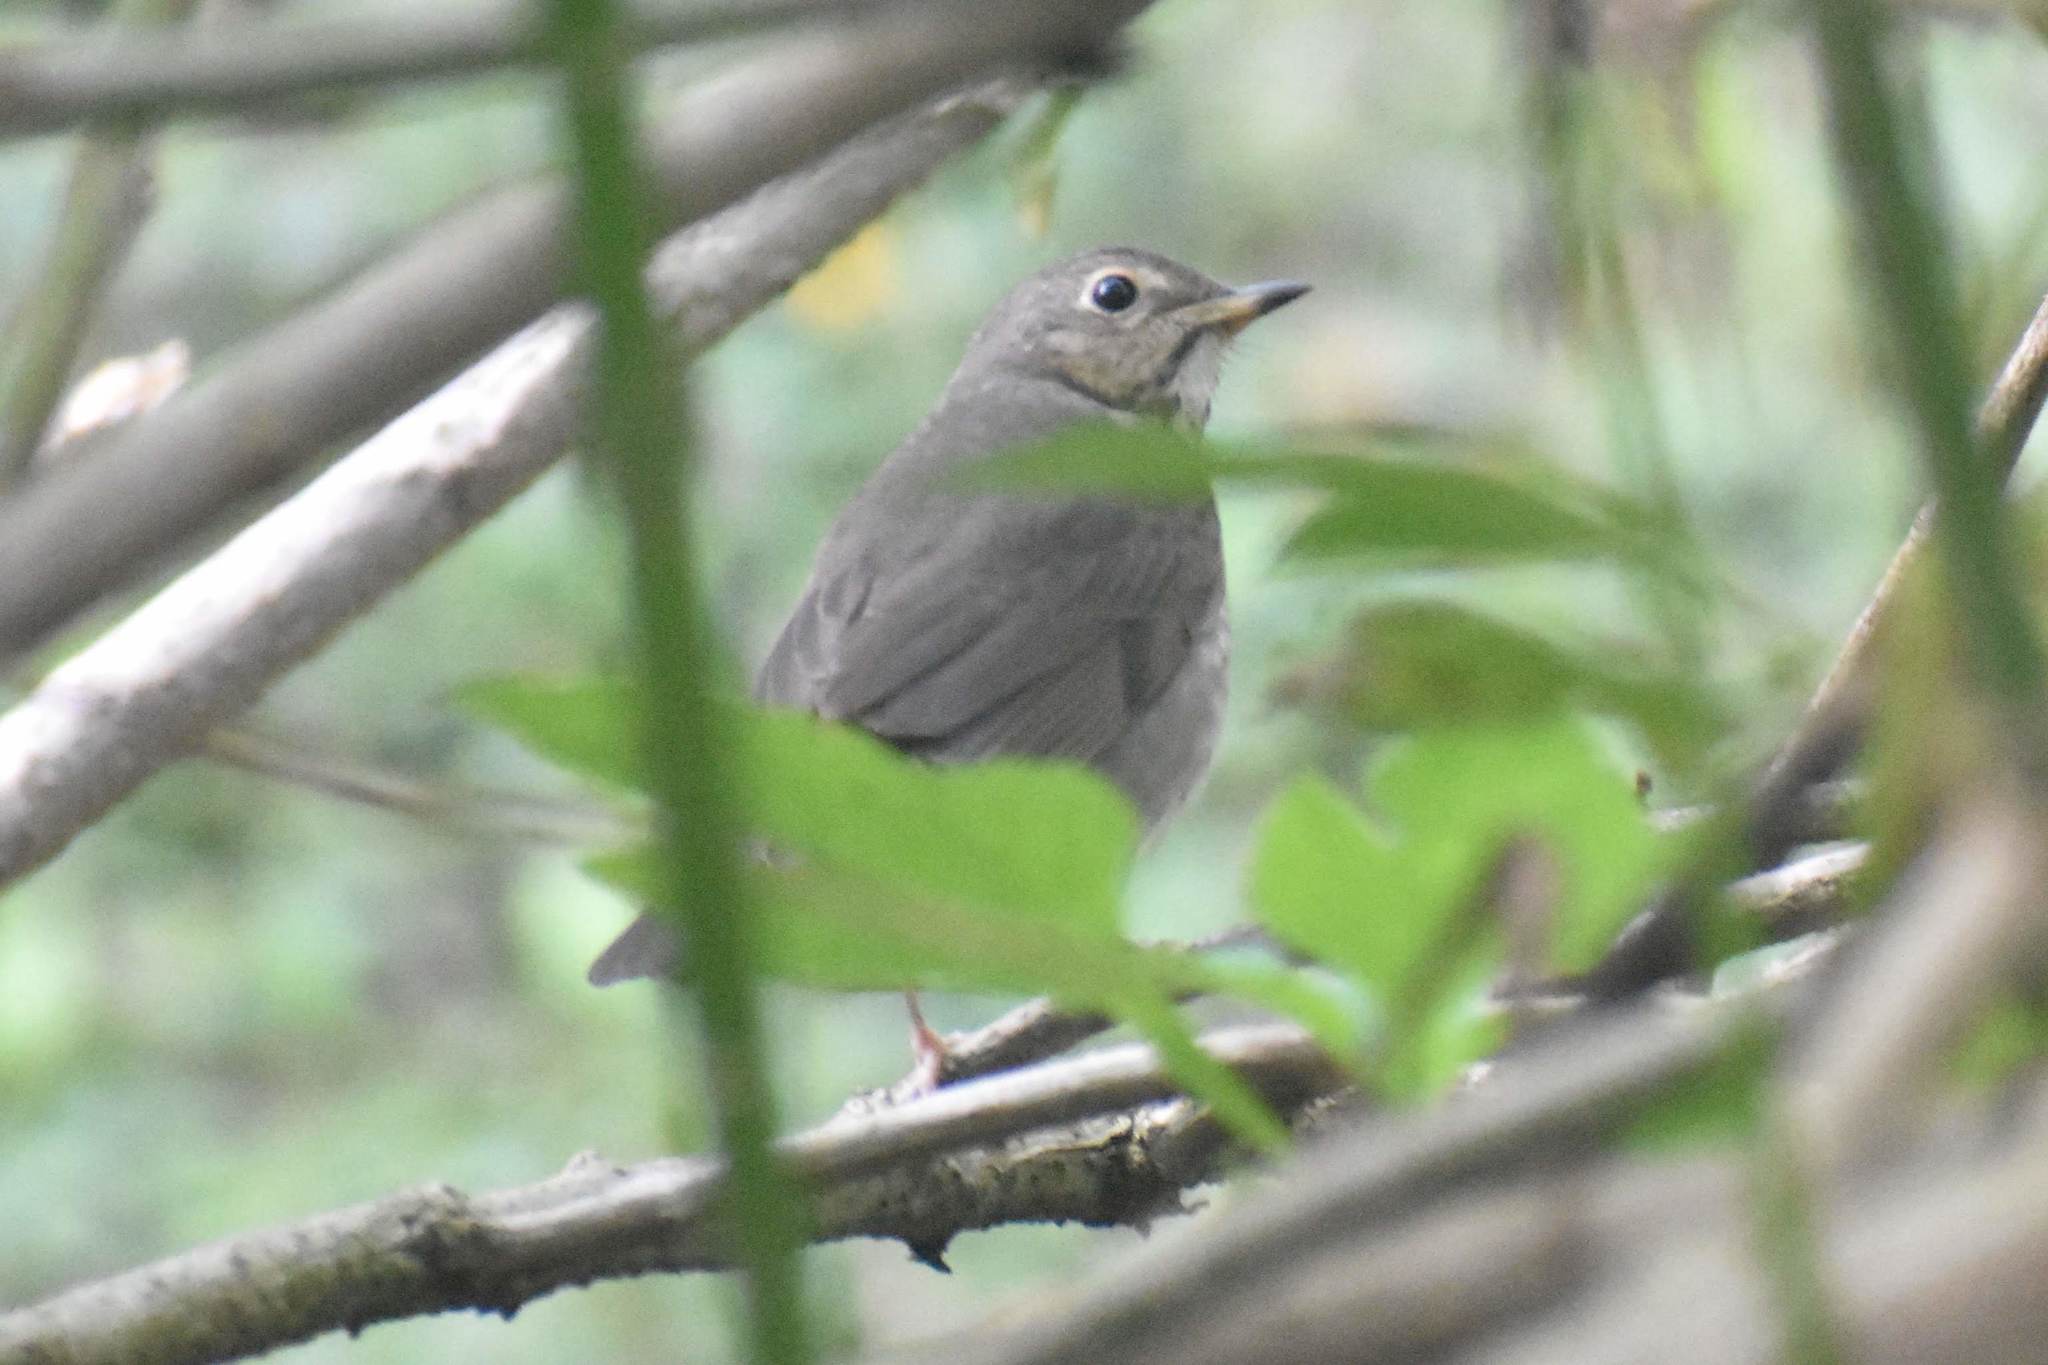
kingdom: Animalia
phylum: Chordata
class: Aves
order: Passeriformes
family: Turdidae
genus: Catharus
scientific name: Catharus ustulatus
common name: Swainson's thrush
